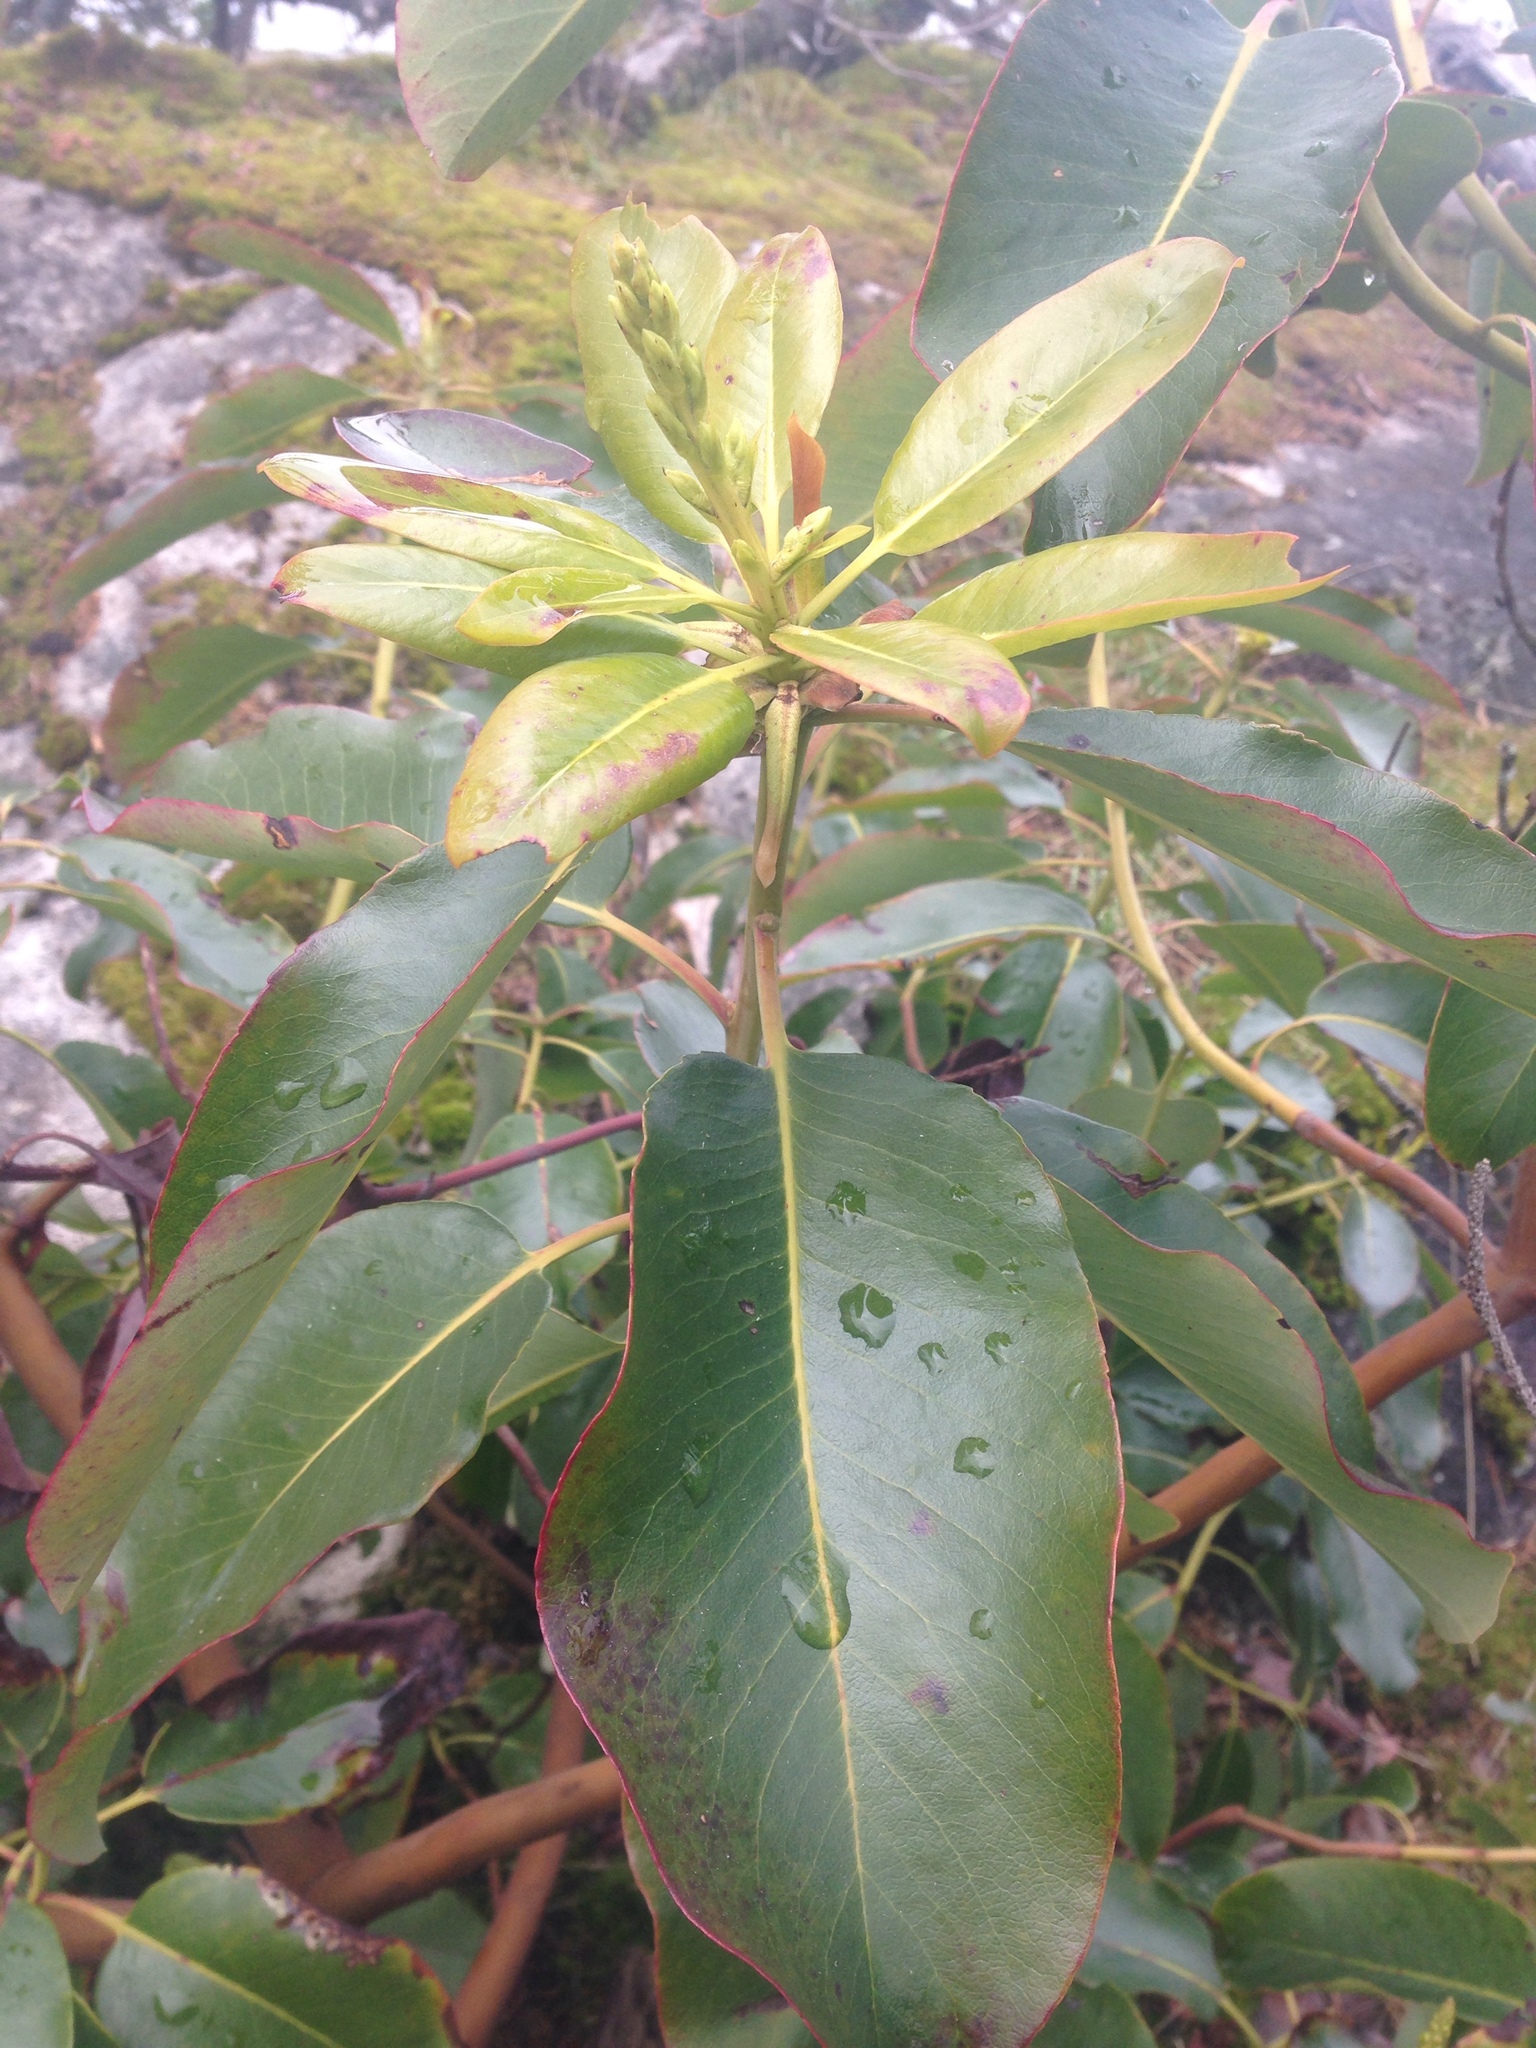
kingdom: Plantae
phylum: Tracheophyta
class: Magnoliopsida
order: Ericales
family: Ericaceae
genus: Arbutus
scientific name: Arbutus menziesii
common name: Pacific madrone
